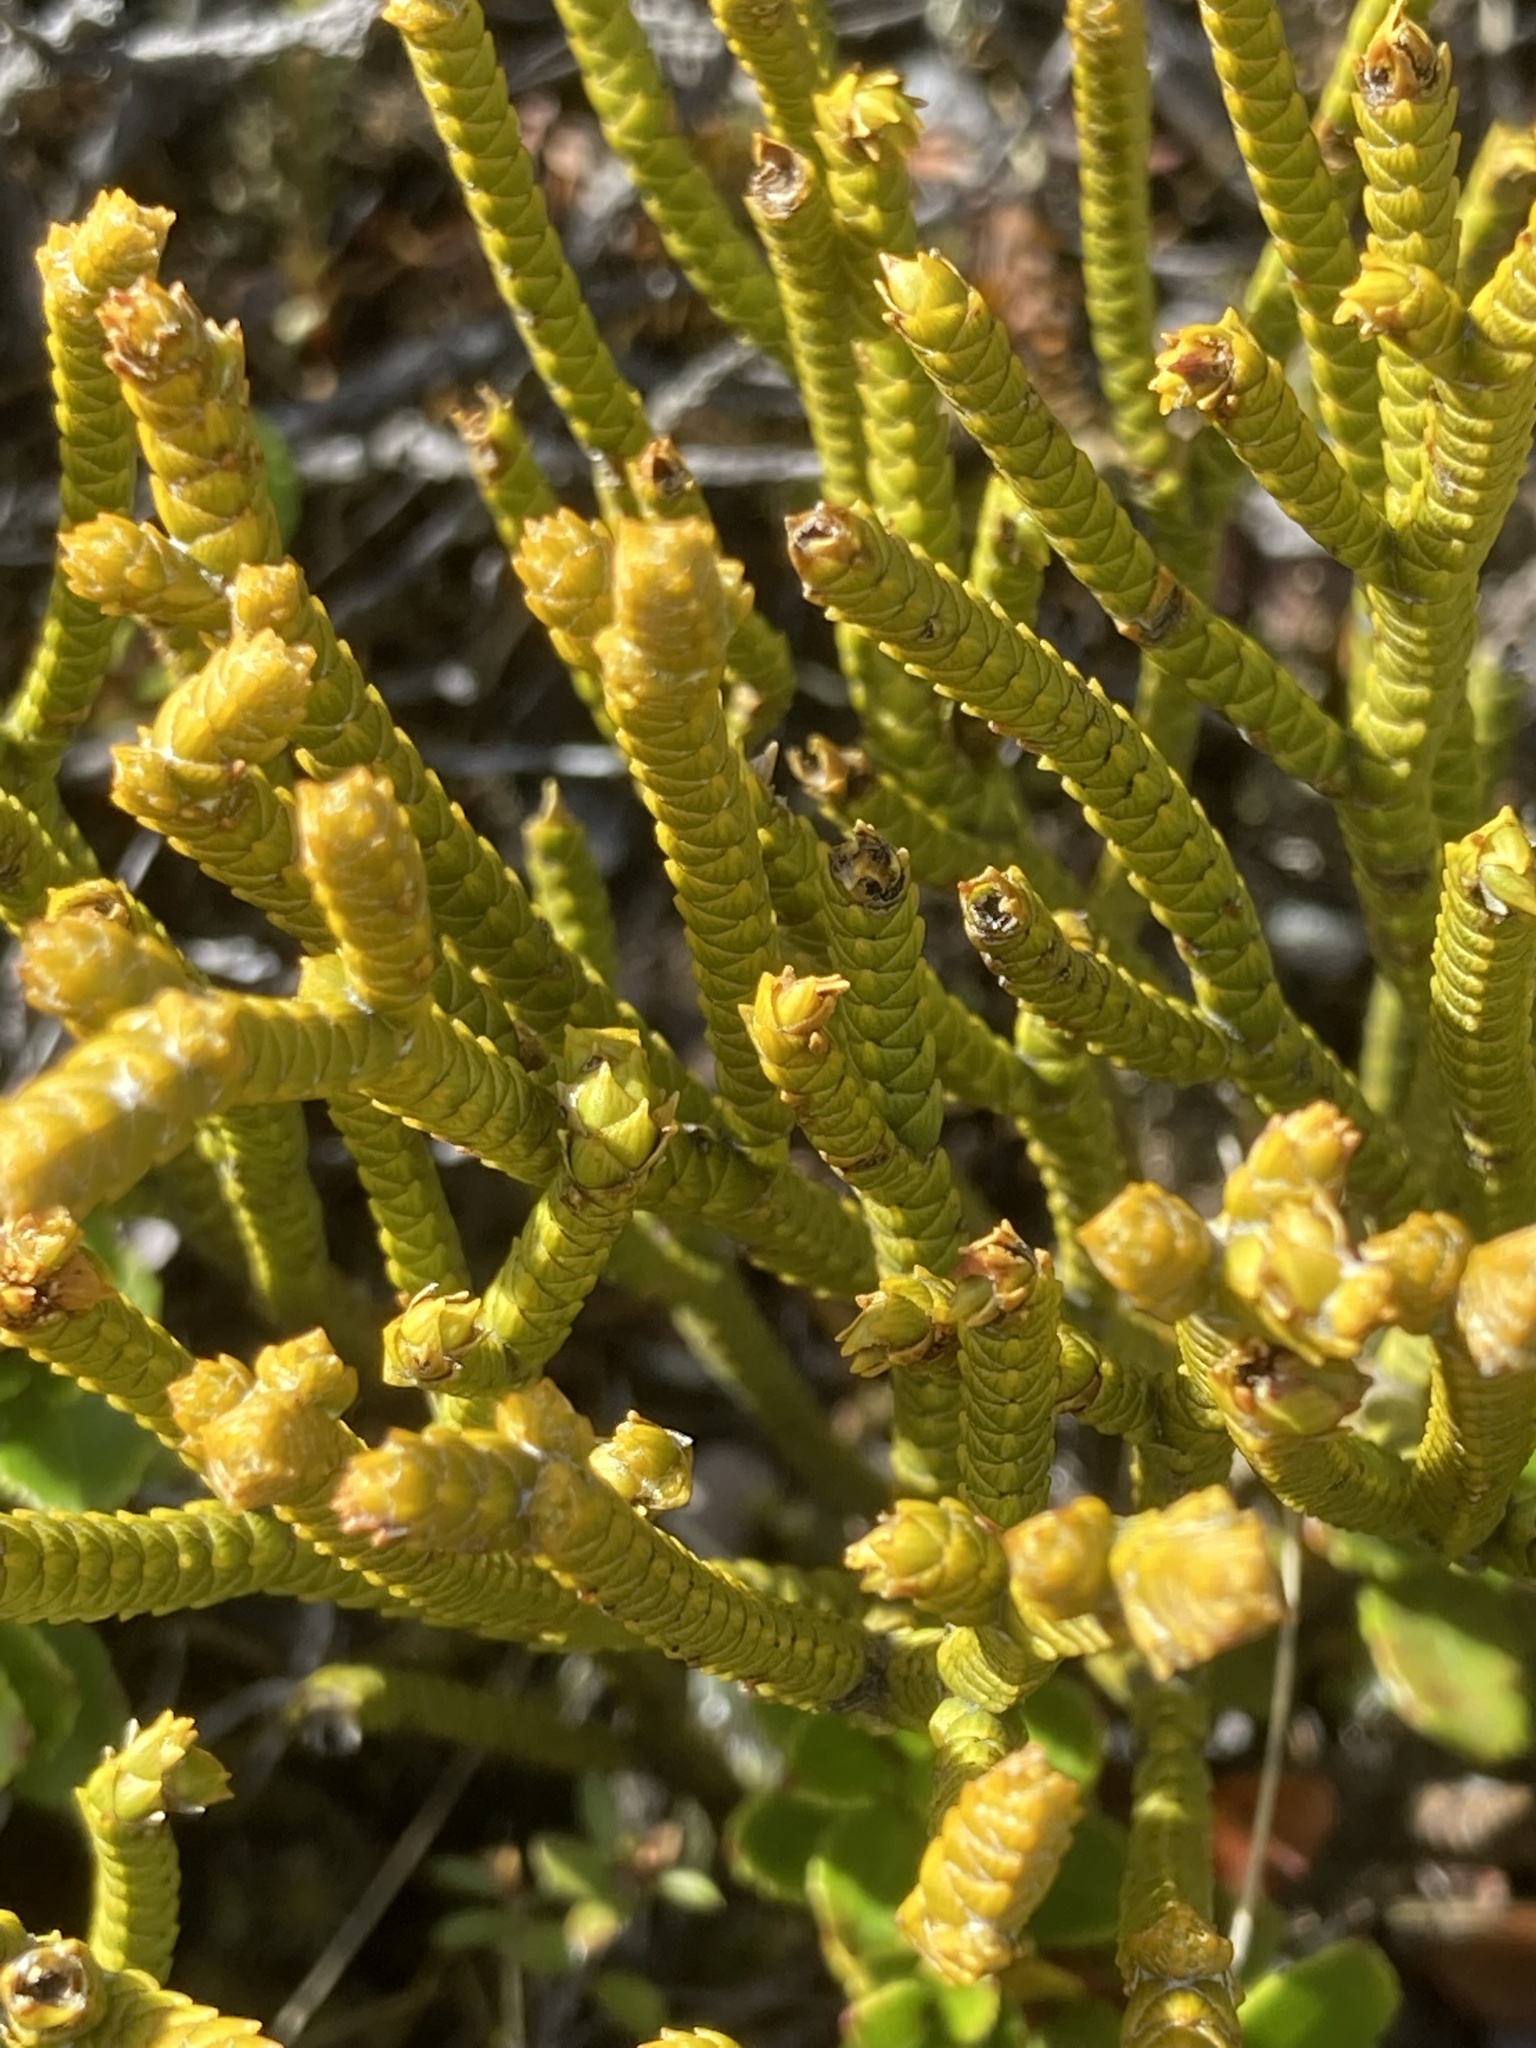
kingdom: Plantae
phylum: Tracheophyta
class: Magnoliopsida
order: Lamiales
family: Plantaginaceae
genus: Veronica
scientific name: Veronica lycopodioides
